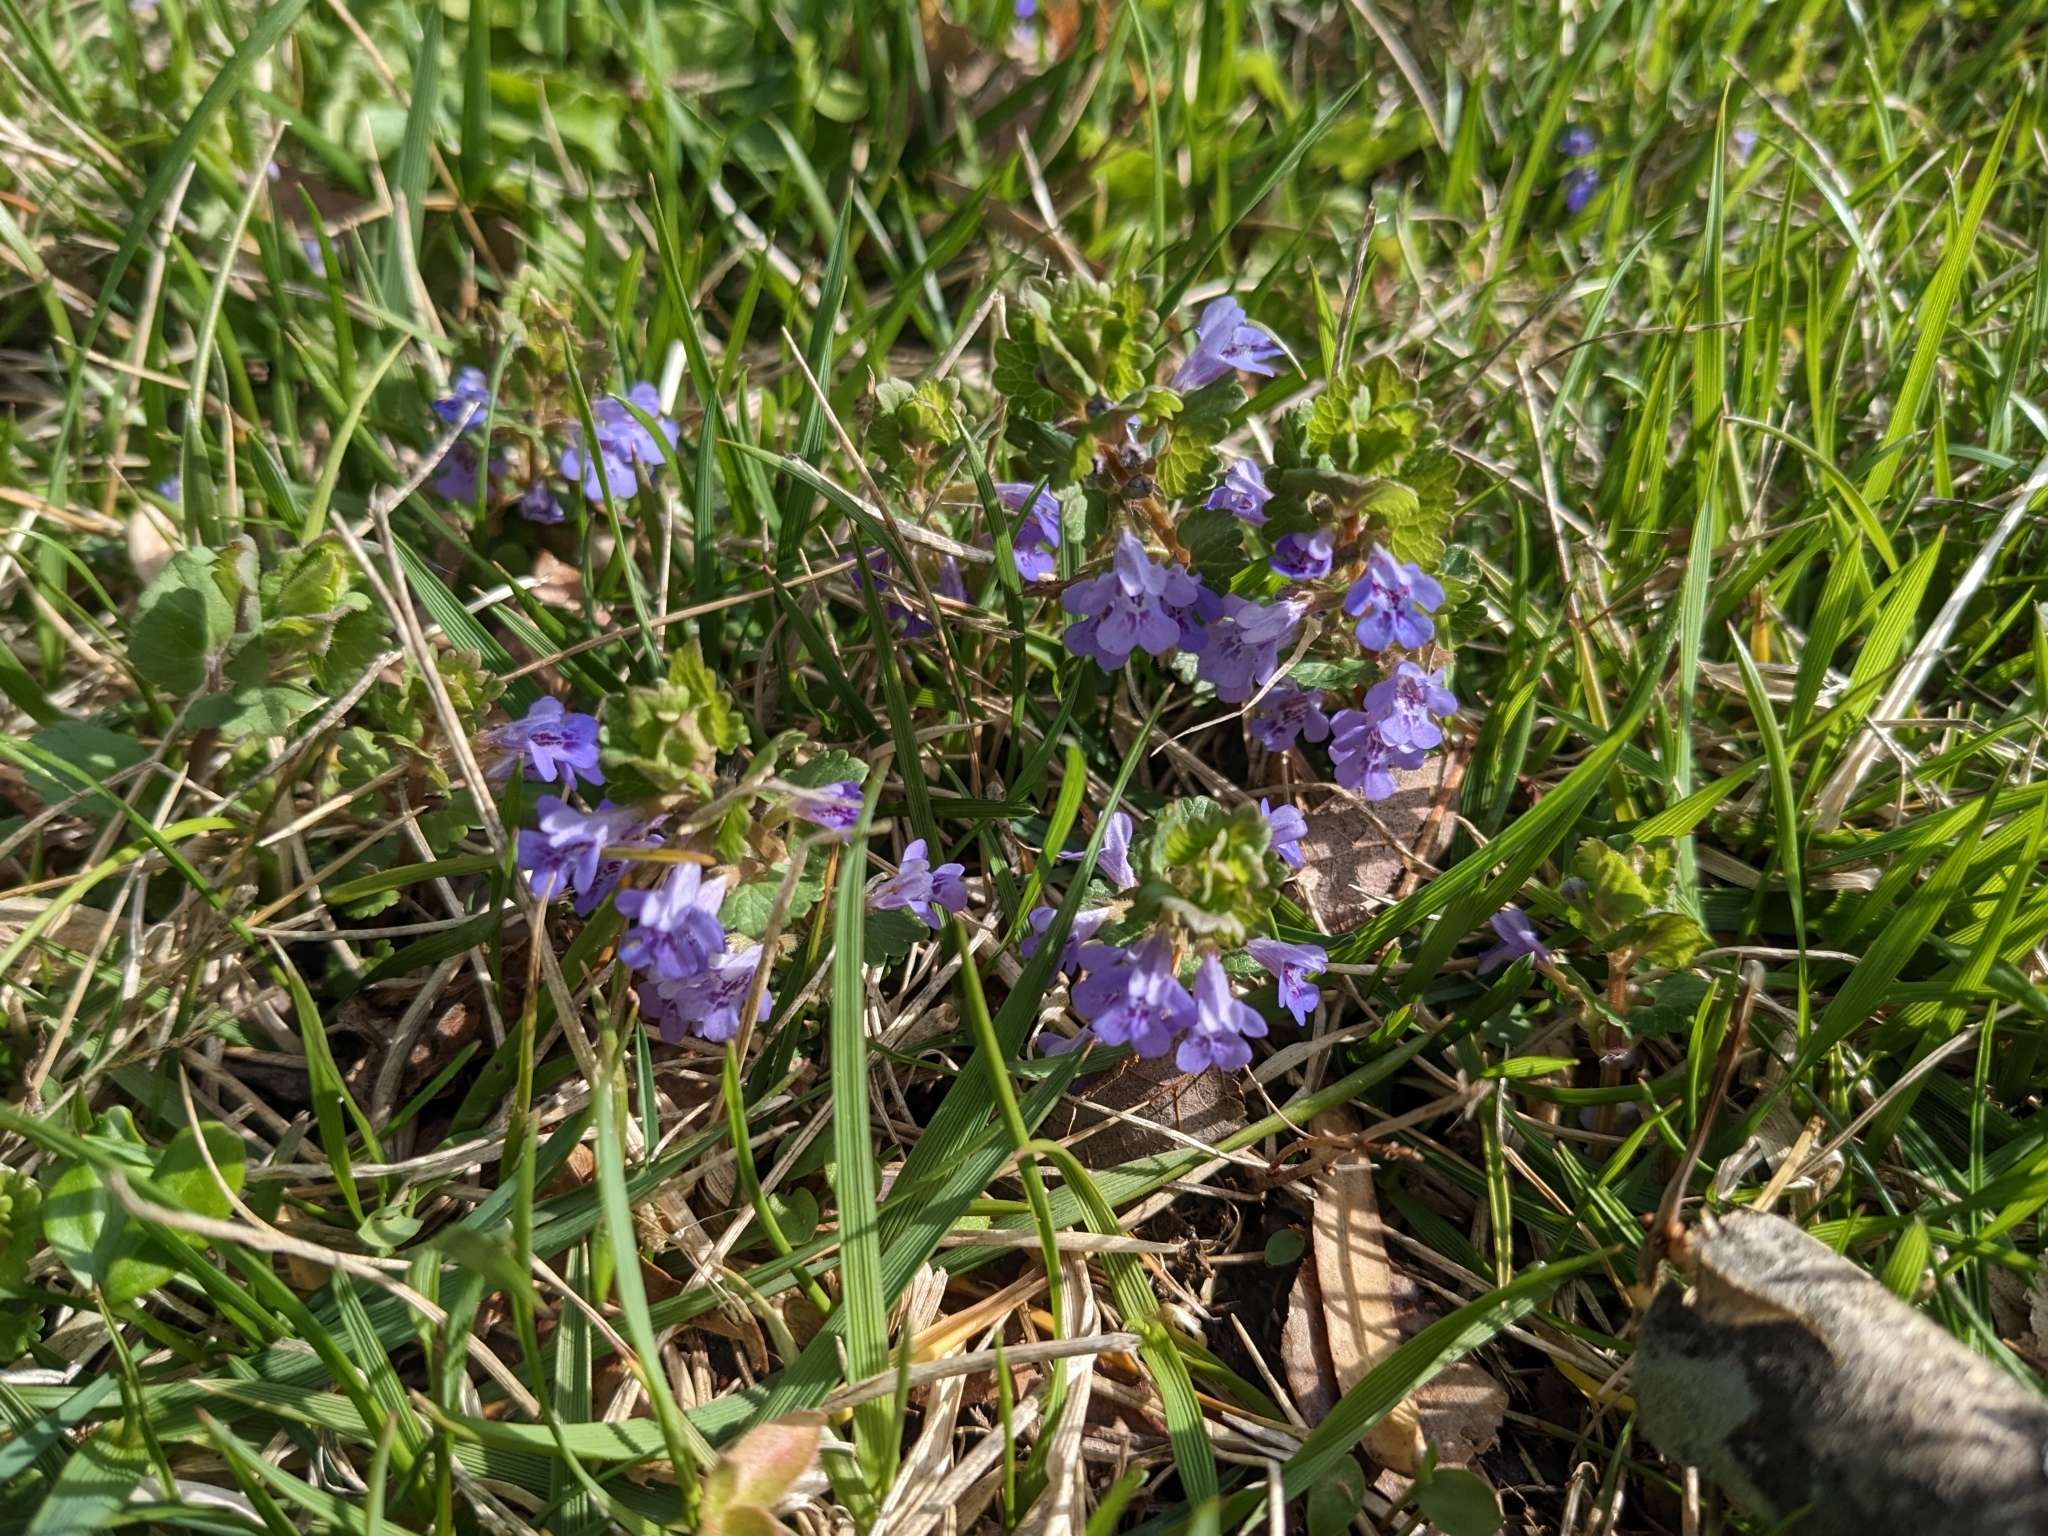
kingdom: Plantae
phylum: Tracheophyta
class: Magnoliopsida
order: Lamiales
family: Lamiaceae
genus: Glechoma
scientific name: Glechoma hederacea
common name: Ground ivy
